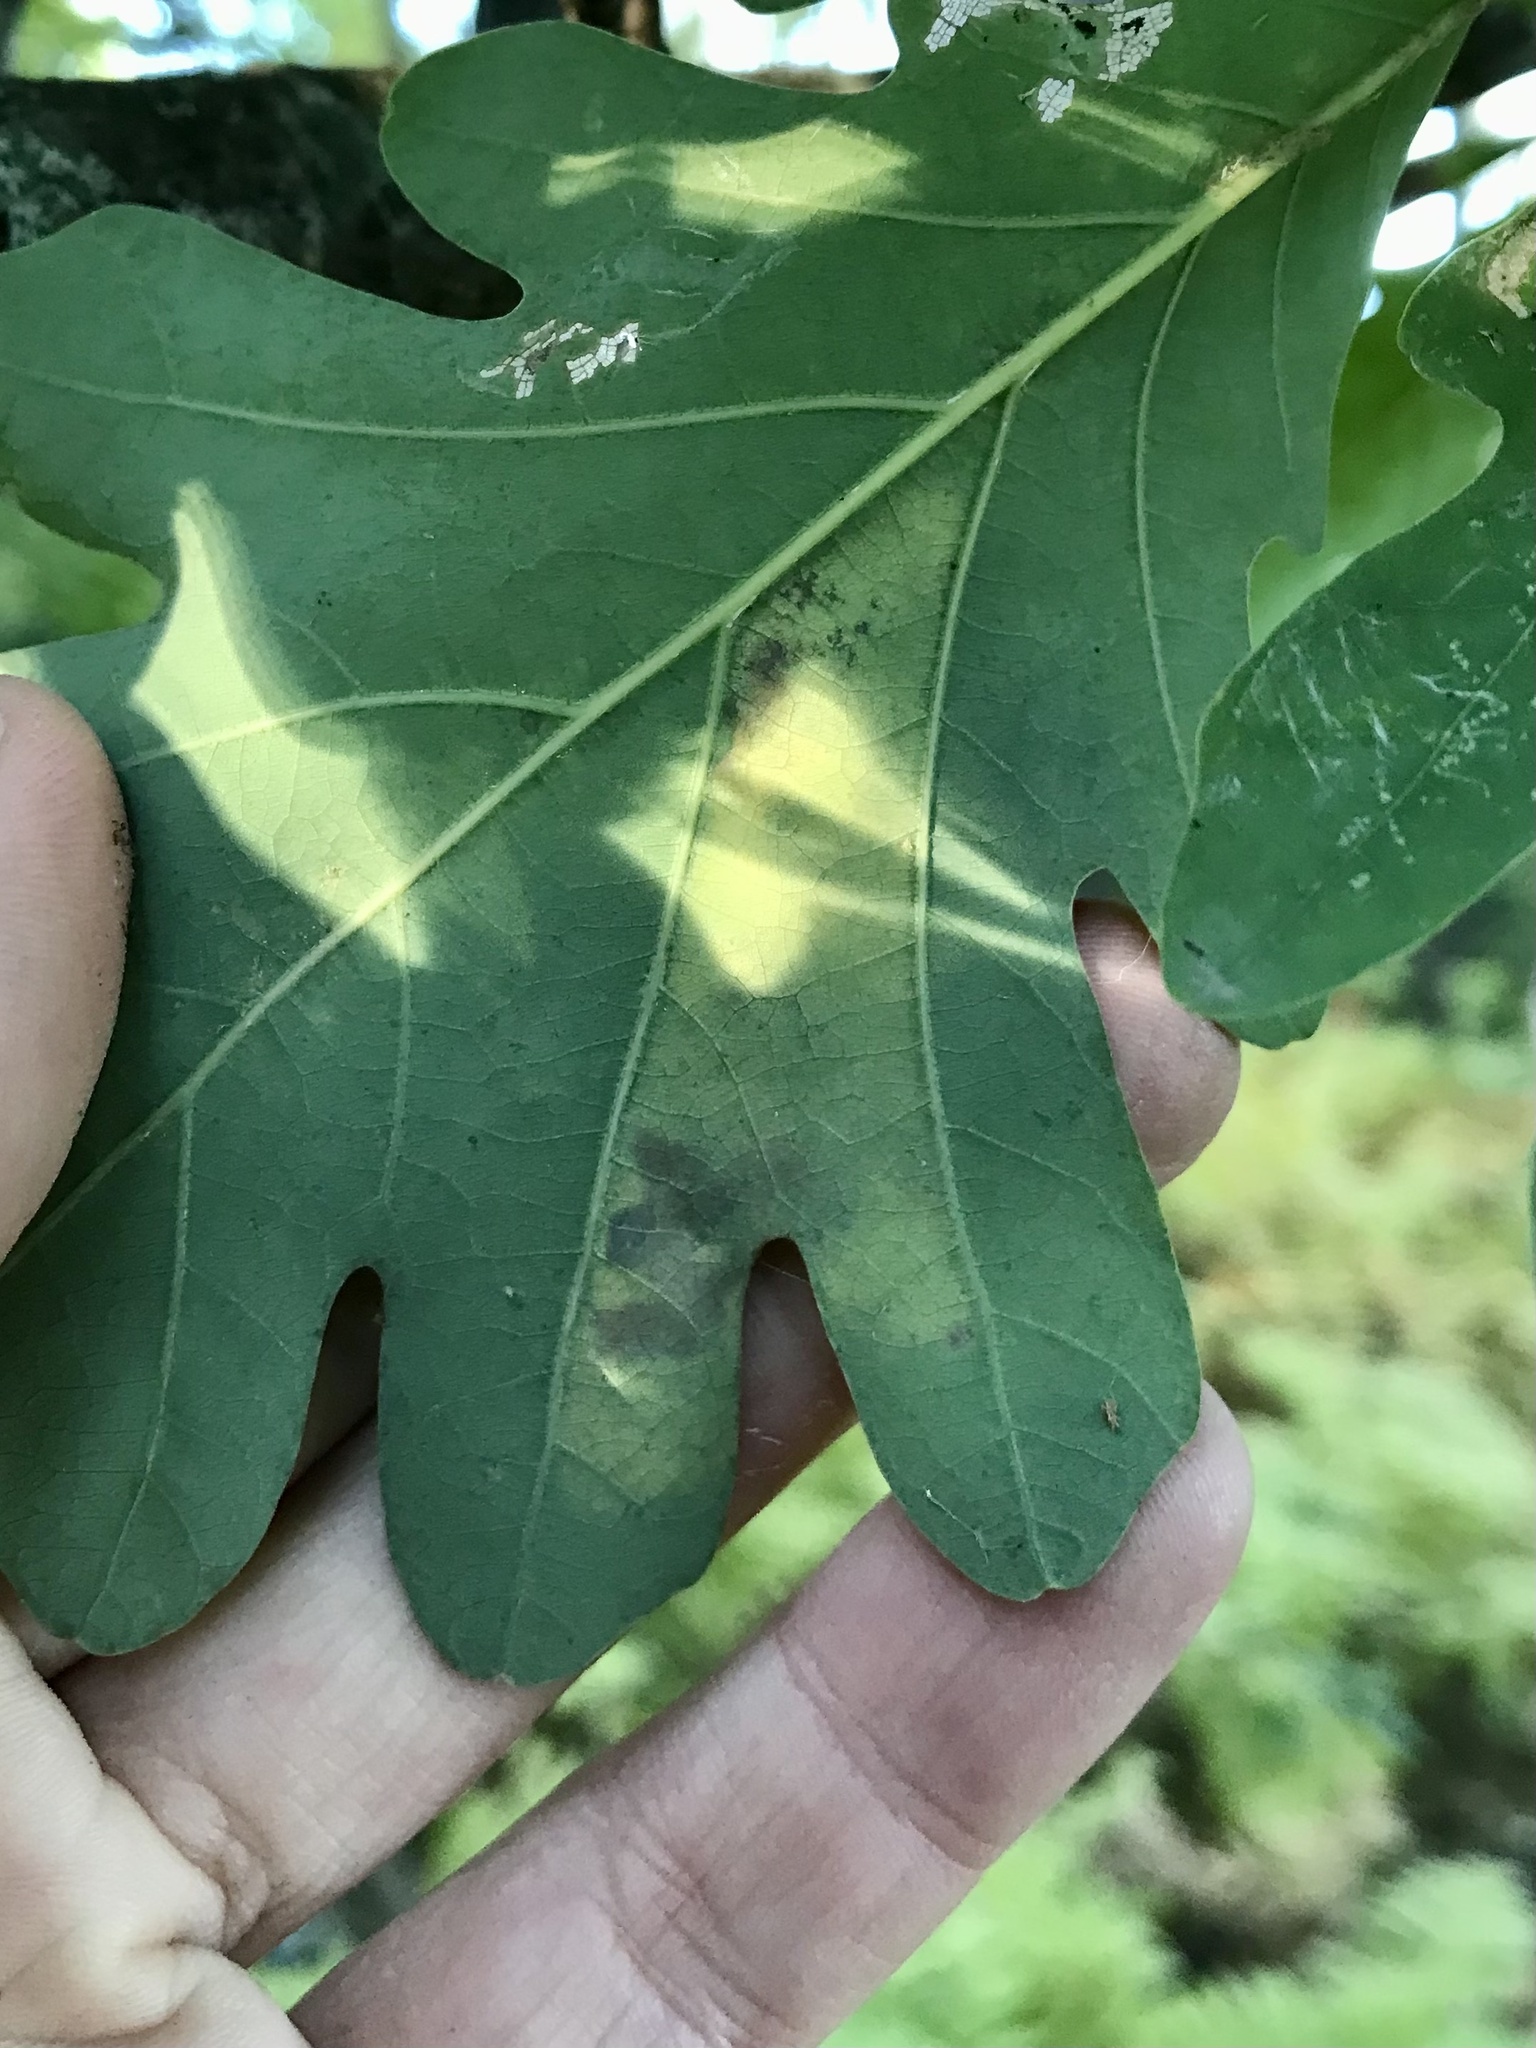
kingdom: Animalia
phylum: Arthropoda
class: Insecta
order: Hymenoptera
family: Tenthredinidae
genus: Profenusa
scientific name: Profenusa
